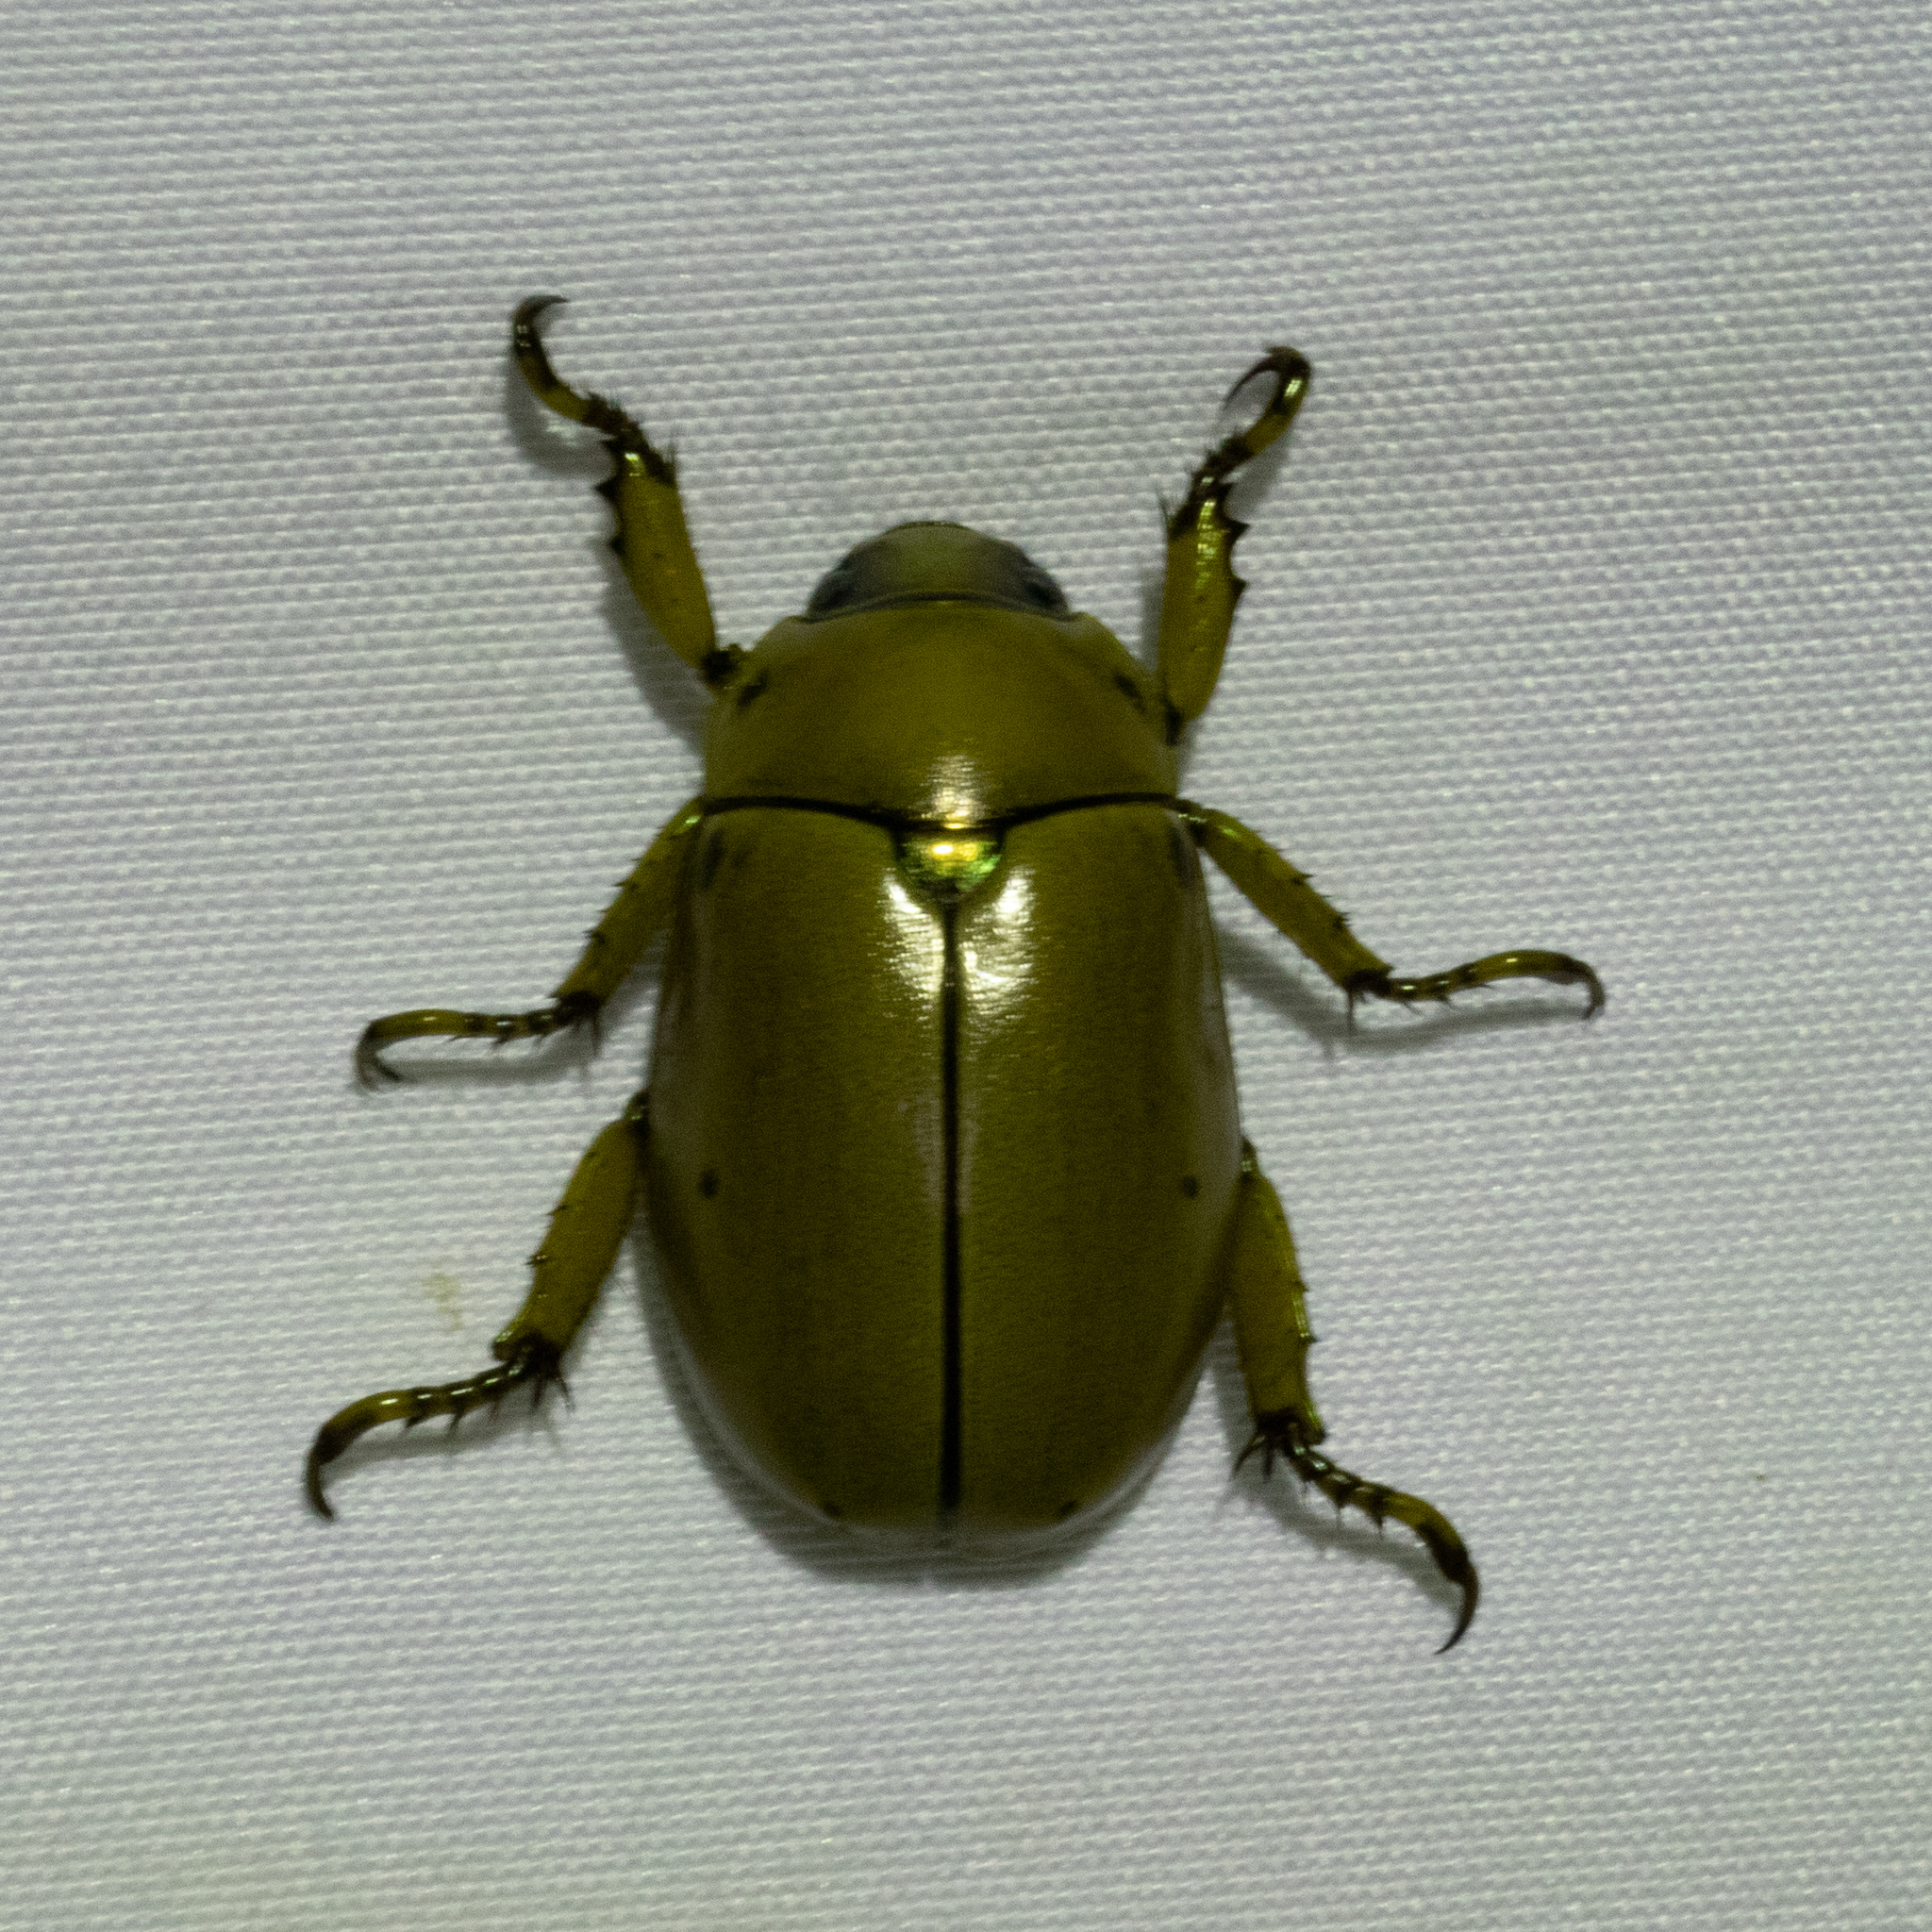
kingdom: Animalia
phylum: Arthropoda
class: Insecta
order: Coleoptera
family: Scarabaeidae
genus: Pelidnota
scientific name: Pelidnota punctata
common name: Grapevine beetle
